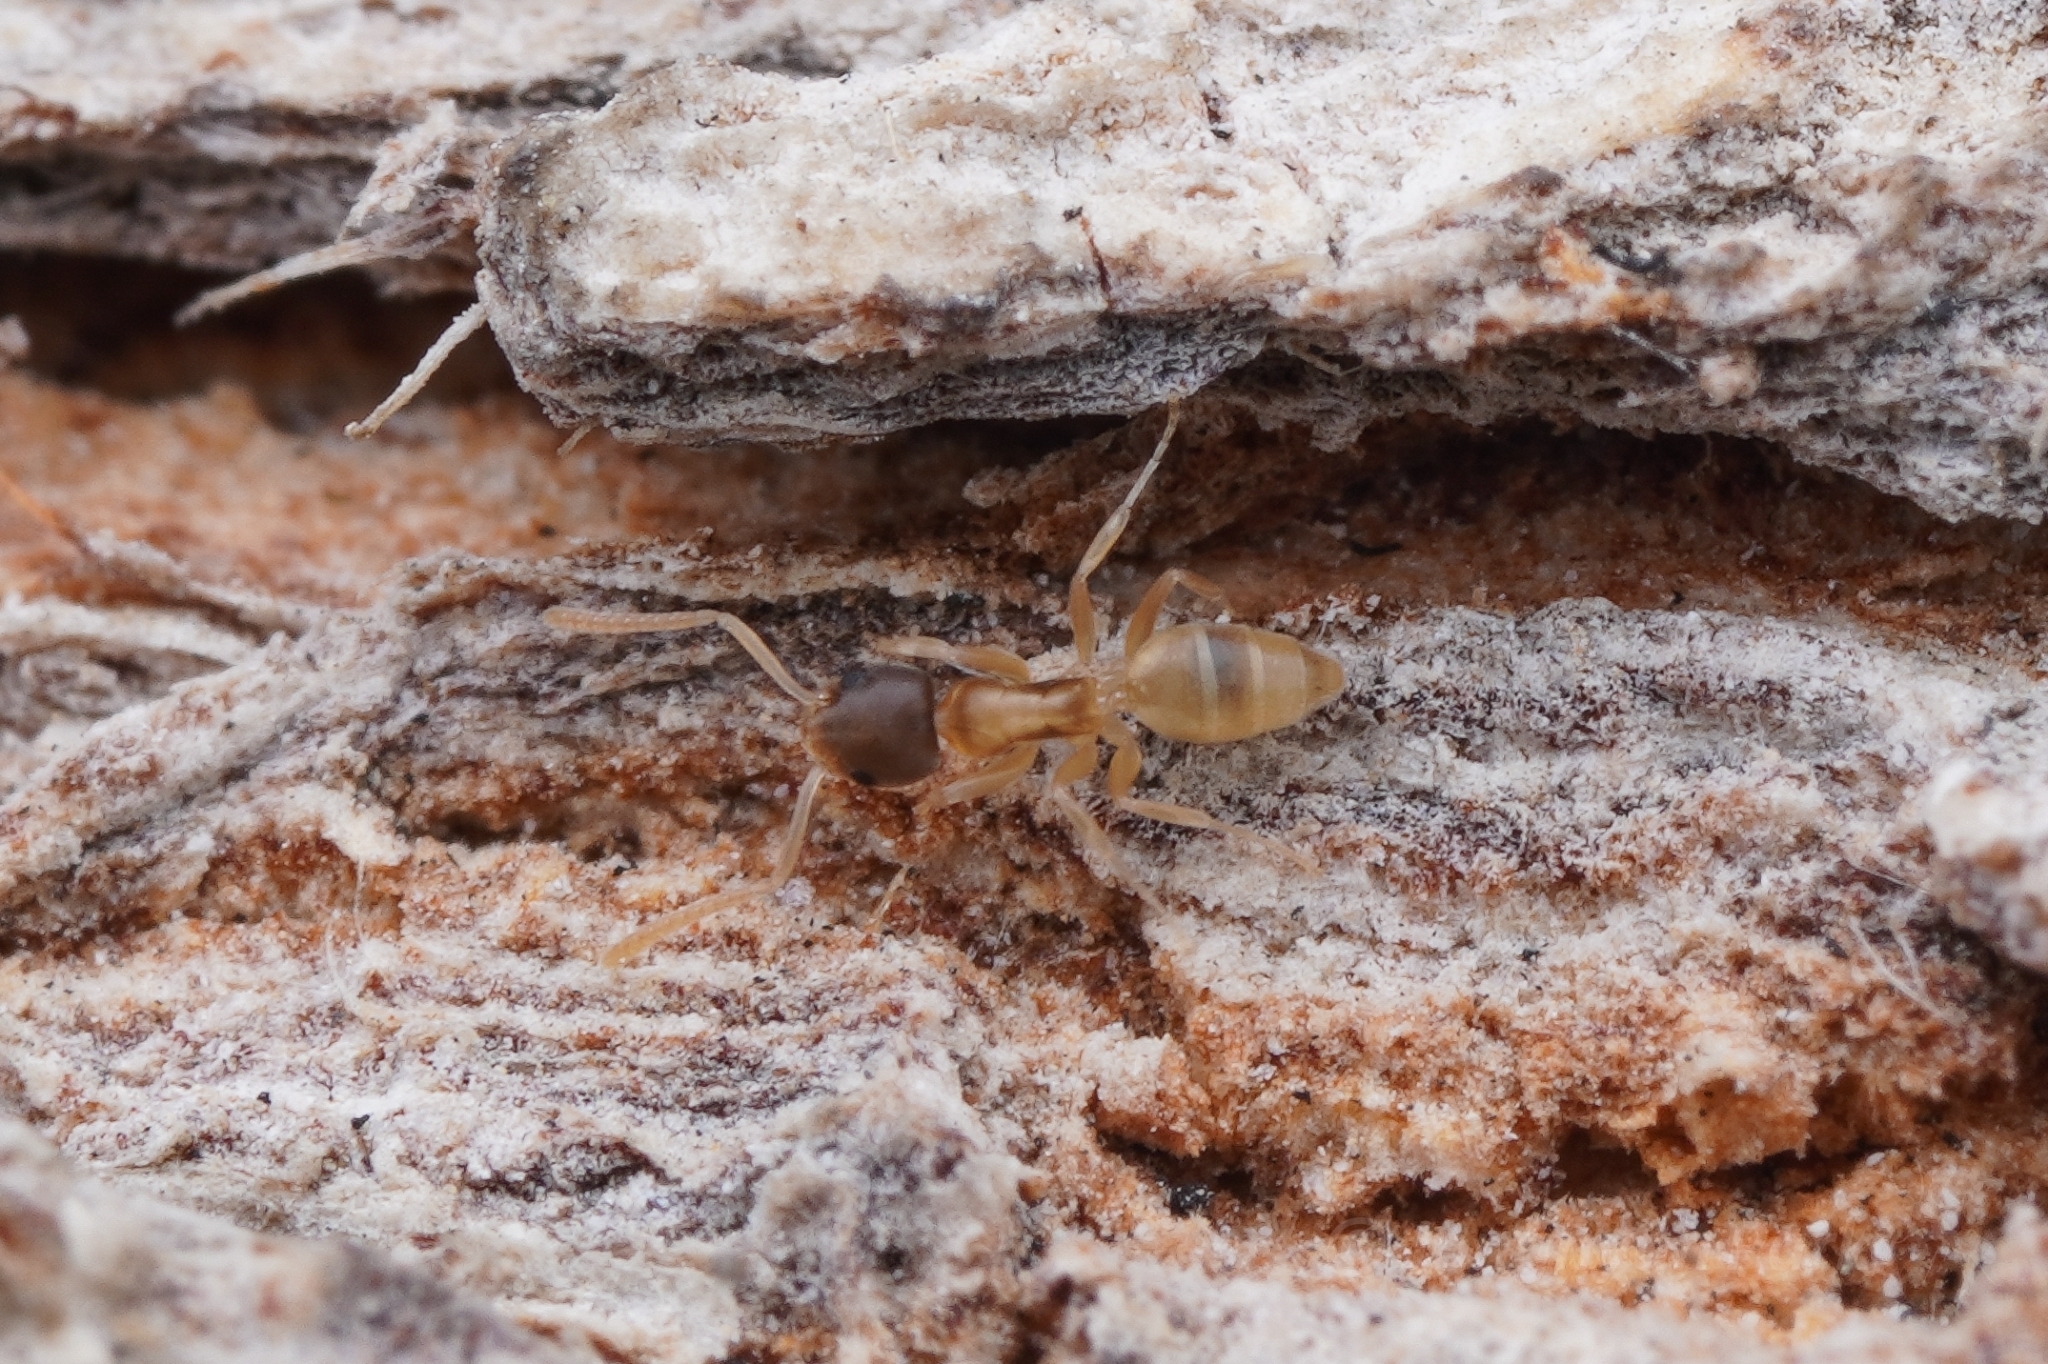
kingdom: Animalia
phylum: Arthropoda
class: Insecta
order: Hymenoptera
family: Formicidae
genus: Tapinoma
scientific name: Tapinoma melanocephalum
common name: Ghost ant
